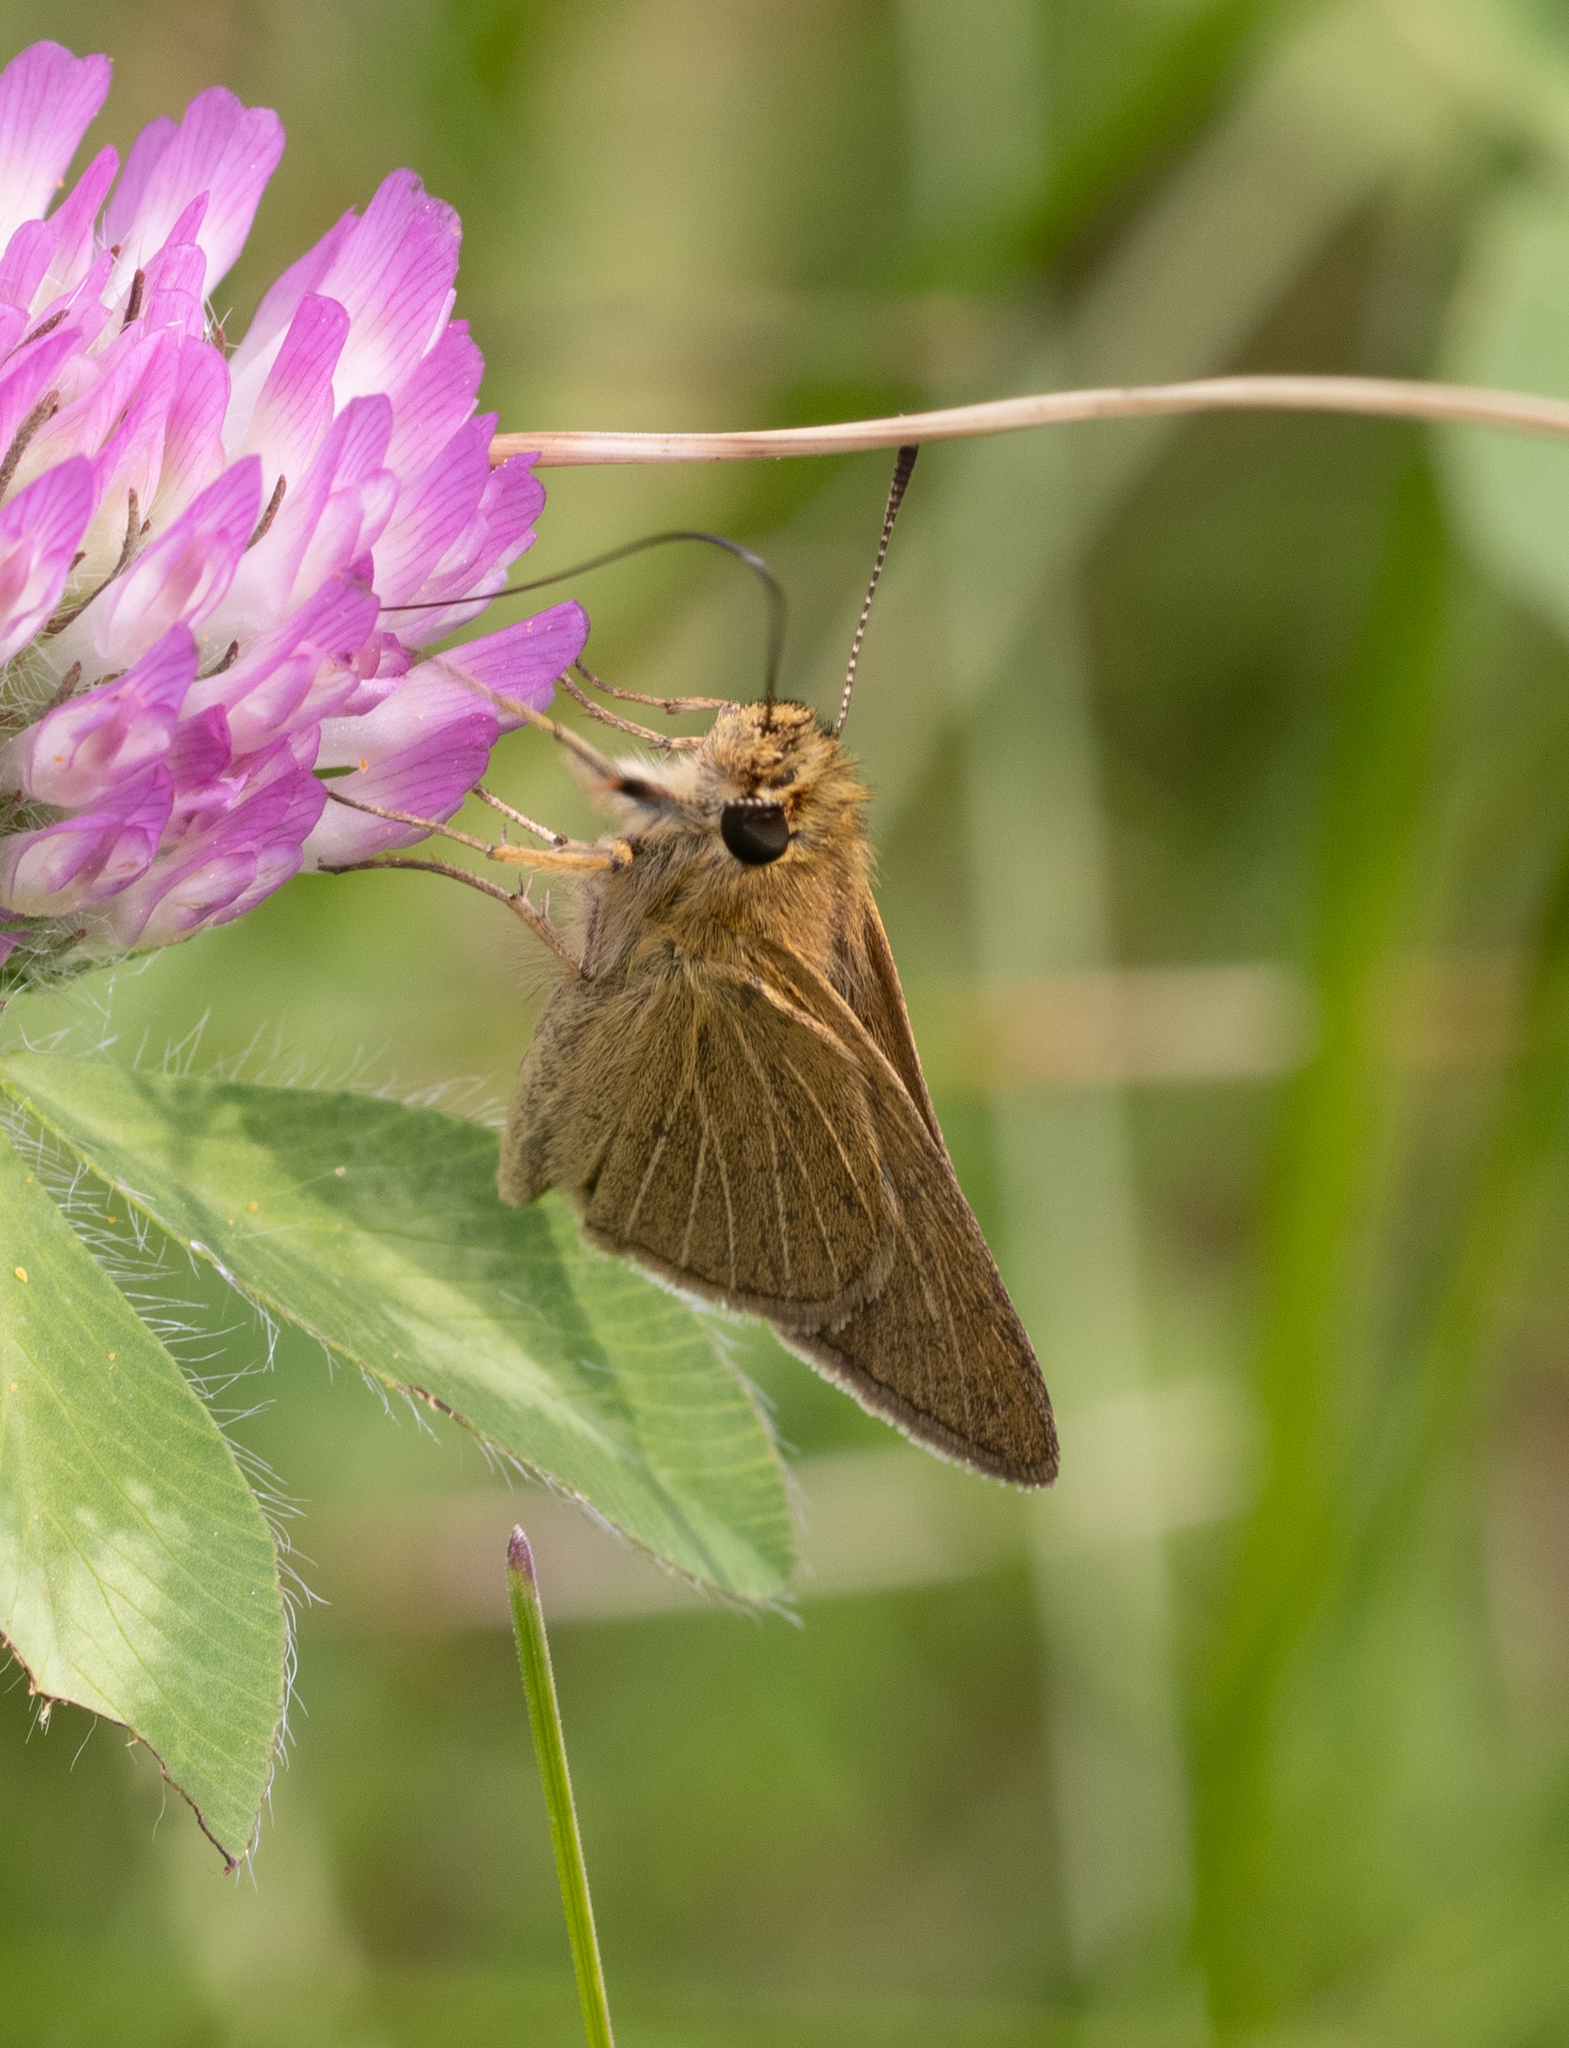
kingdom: Animalia
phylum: Arthropoda
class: Insecta
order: Lepidoptera
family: Hesperiidae
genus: Nastra
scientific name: Nastra lherminier
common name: Swarthy skipper
